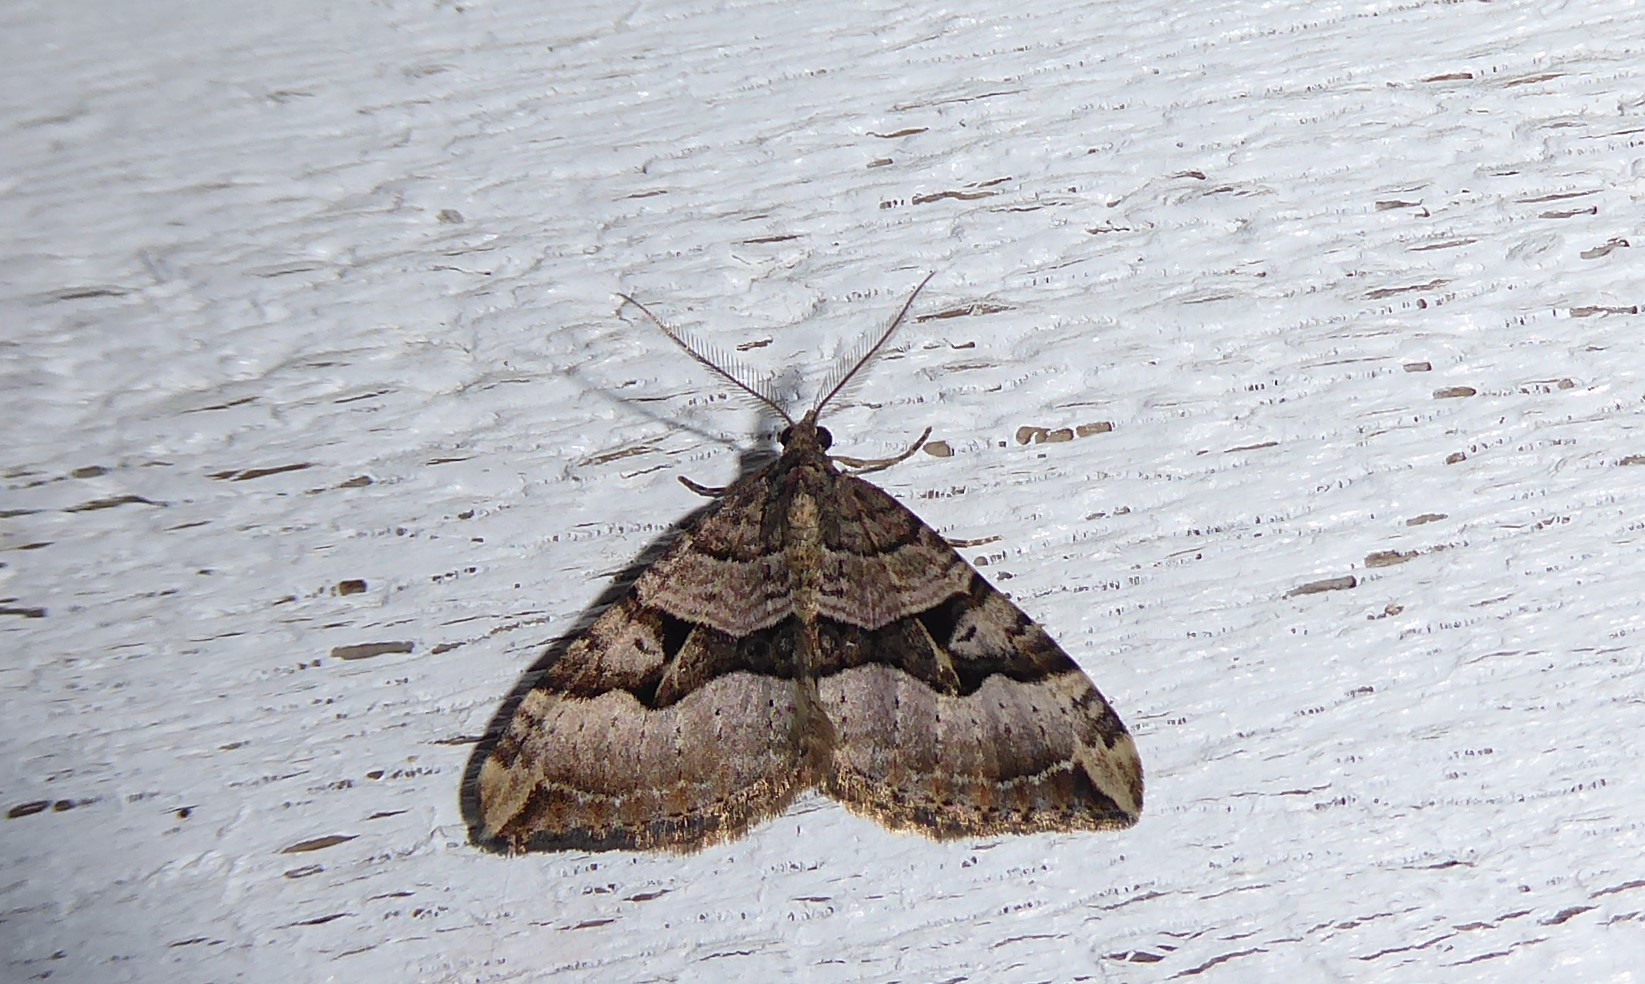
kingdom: Animalia
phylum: Arthropoda
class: Insecta
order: Lepidoptera
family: Geometridae
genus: Xanthorhoe
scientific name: Xanthorhoe semifissata
